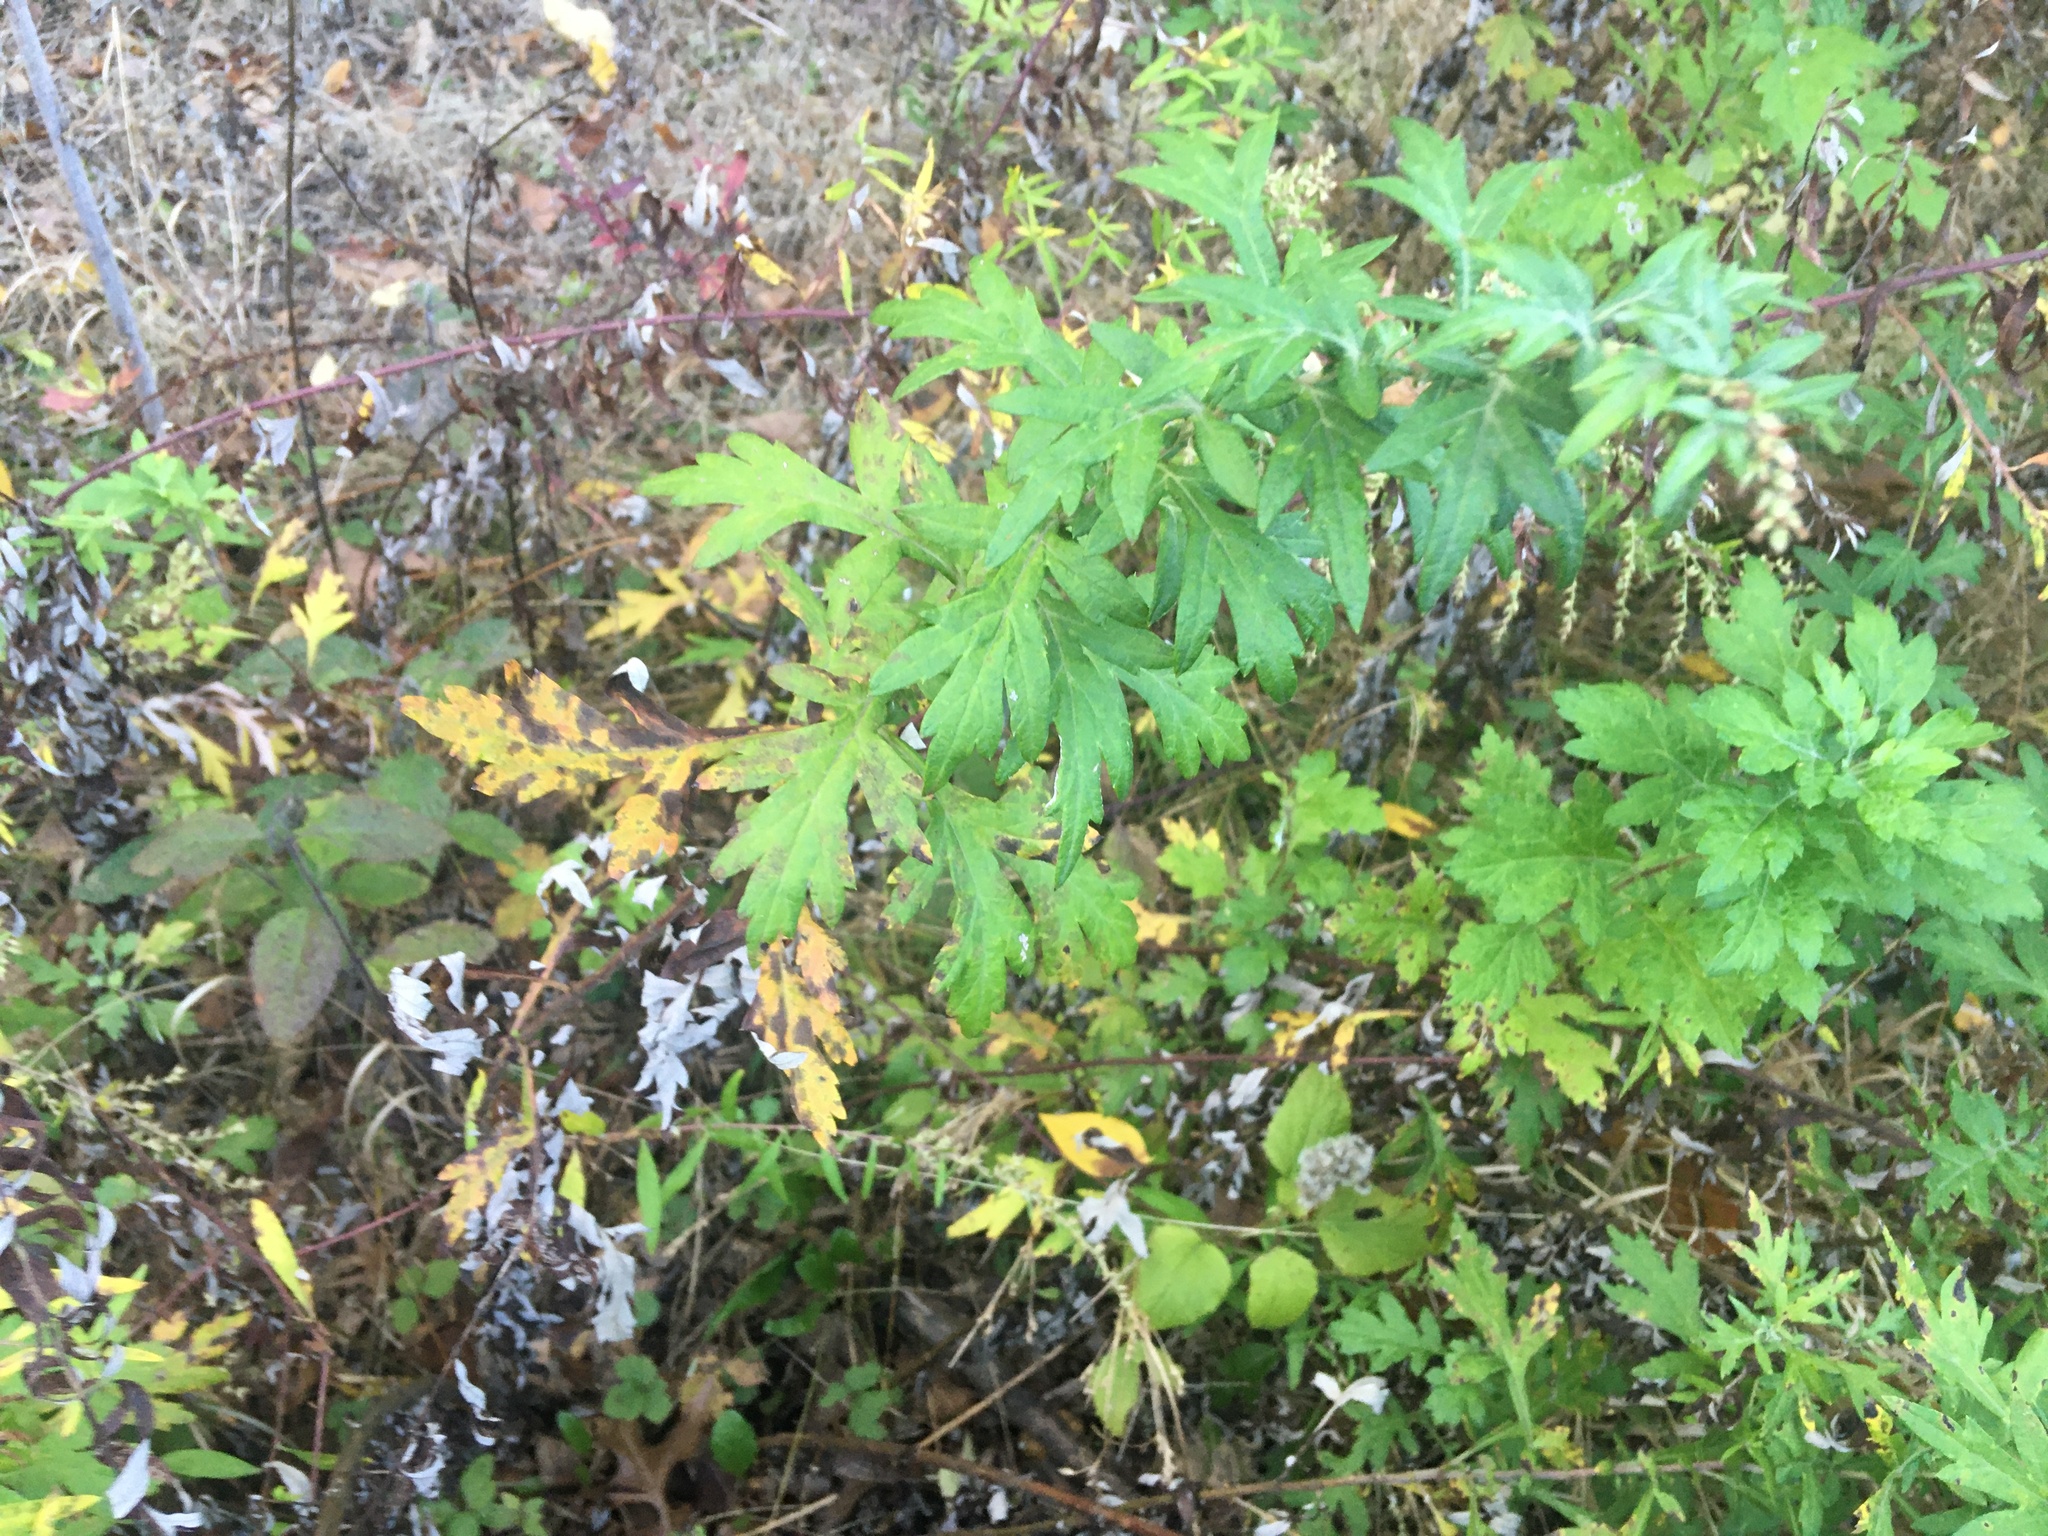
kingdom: Plantae
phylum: Tracheophyta
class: Magnoliopsida
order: Asterales
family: Asteraceae
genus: Artemisia
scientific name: Artemisia vulgaris
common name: Mugwort
